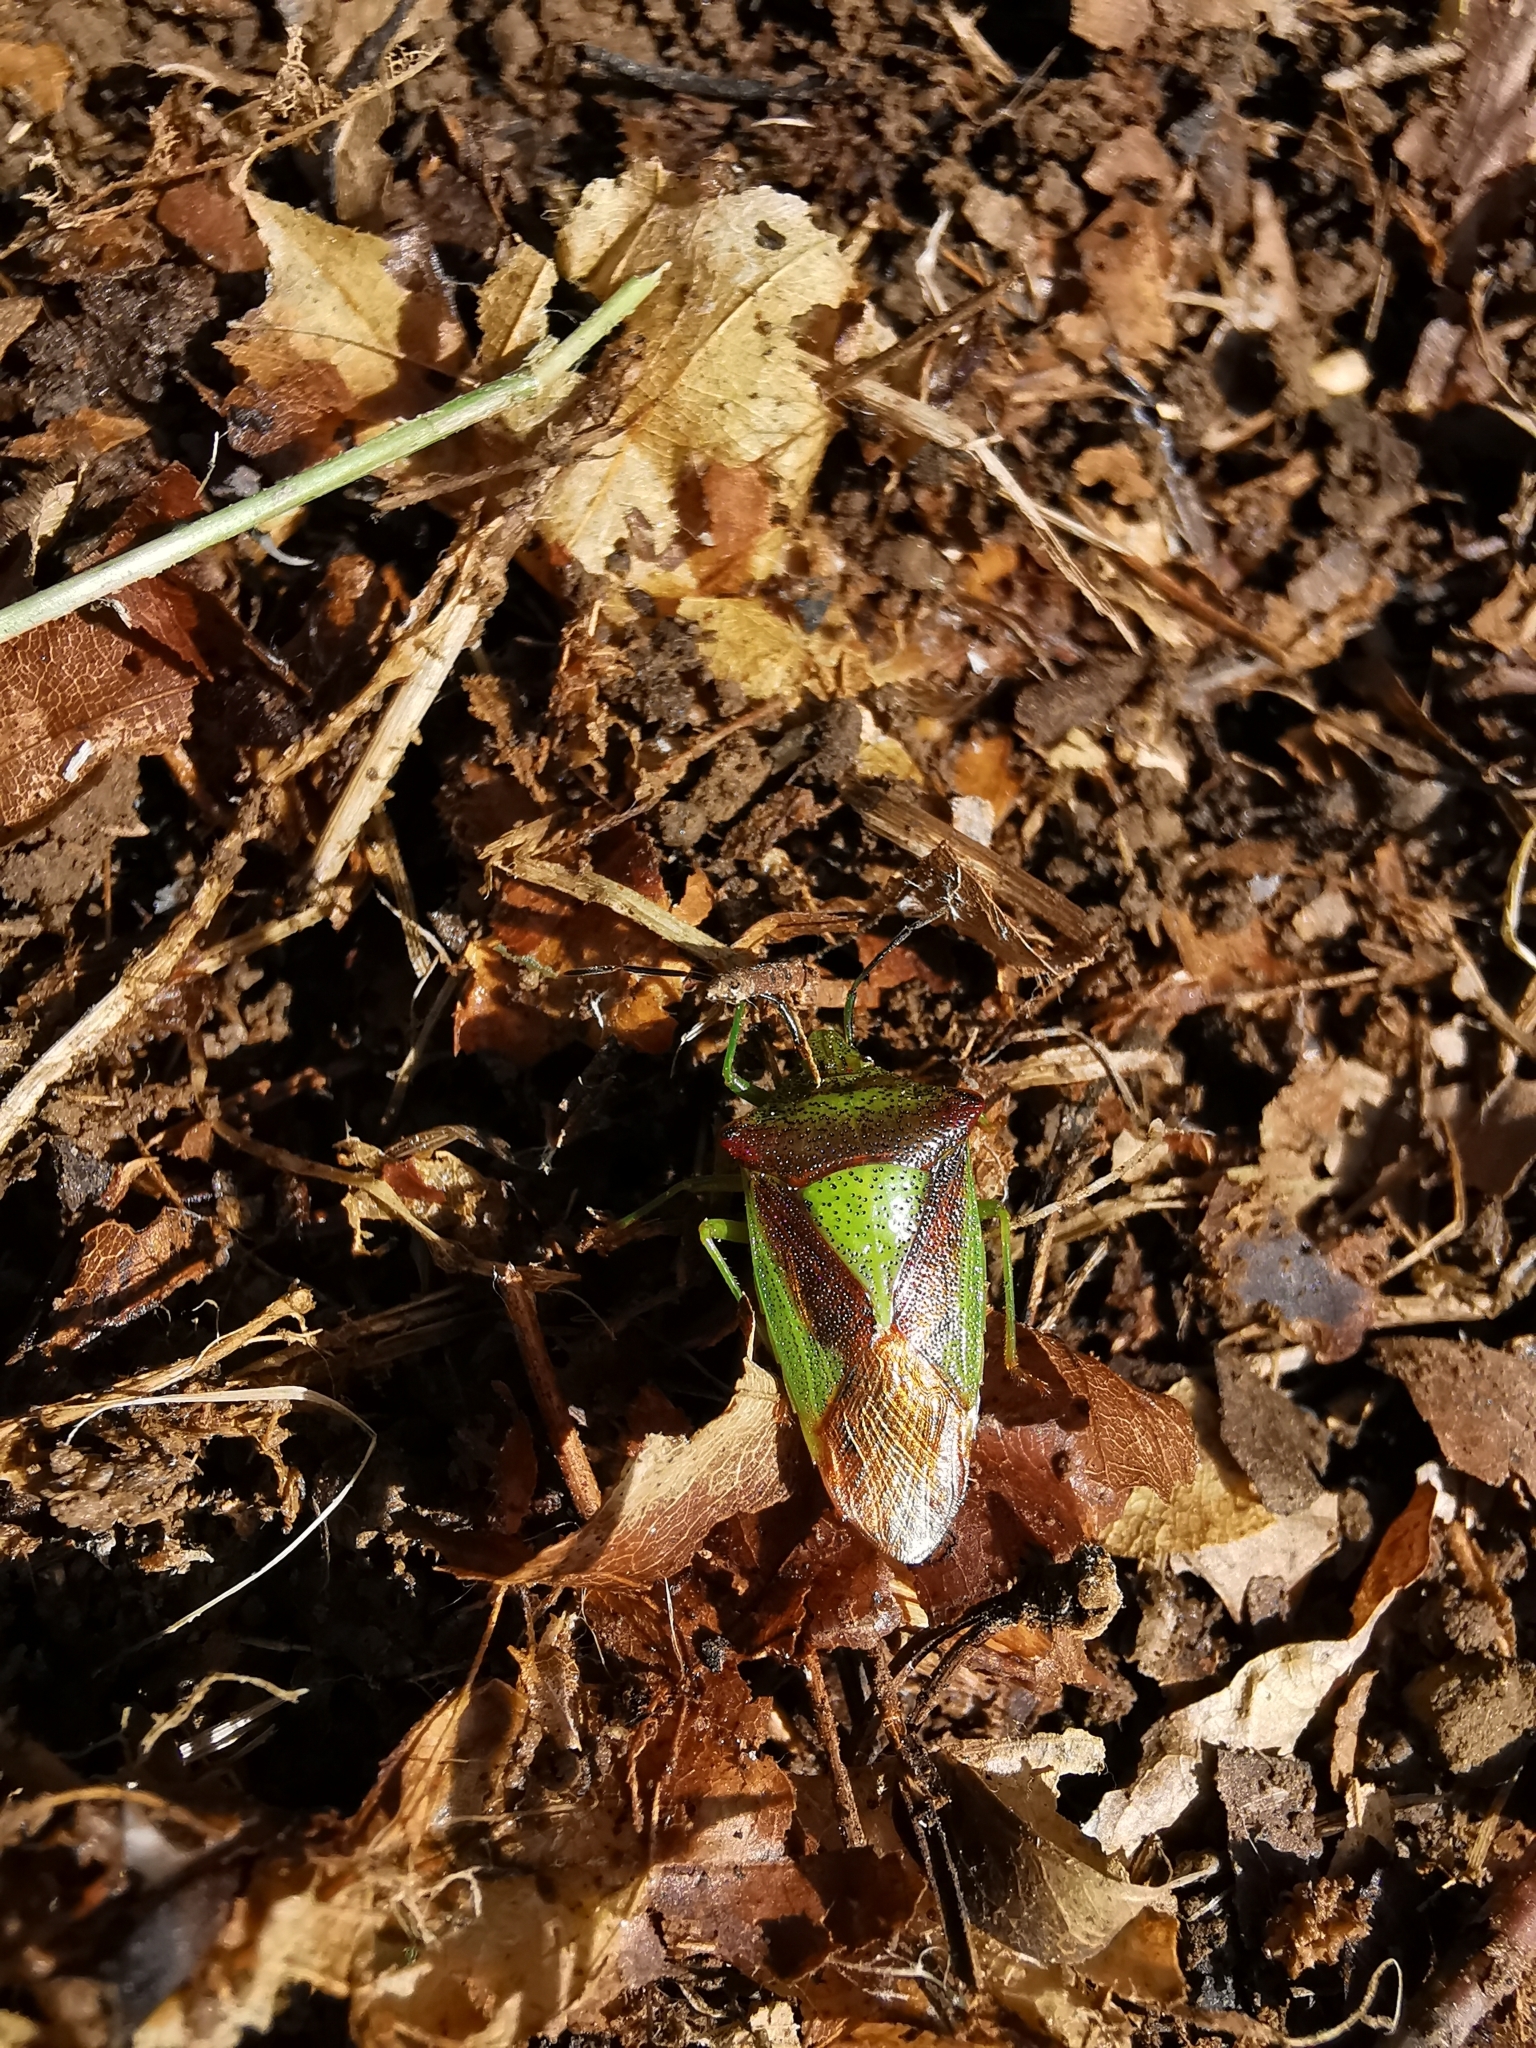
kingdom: Animalia
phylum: Arthropoda
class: Insecta
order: Hemiptera
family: Acanthosomatidae
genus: Acanthosoma
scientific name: Acanthosoma haemorrhoidale
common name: Hawthorn shieldbug
